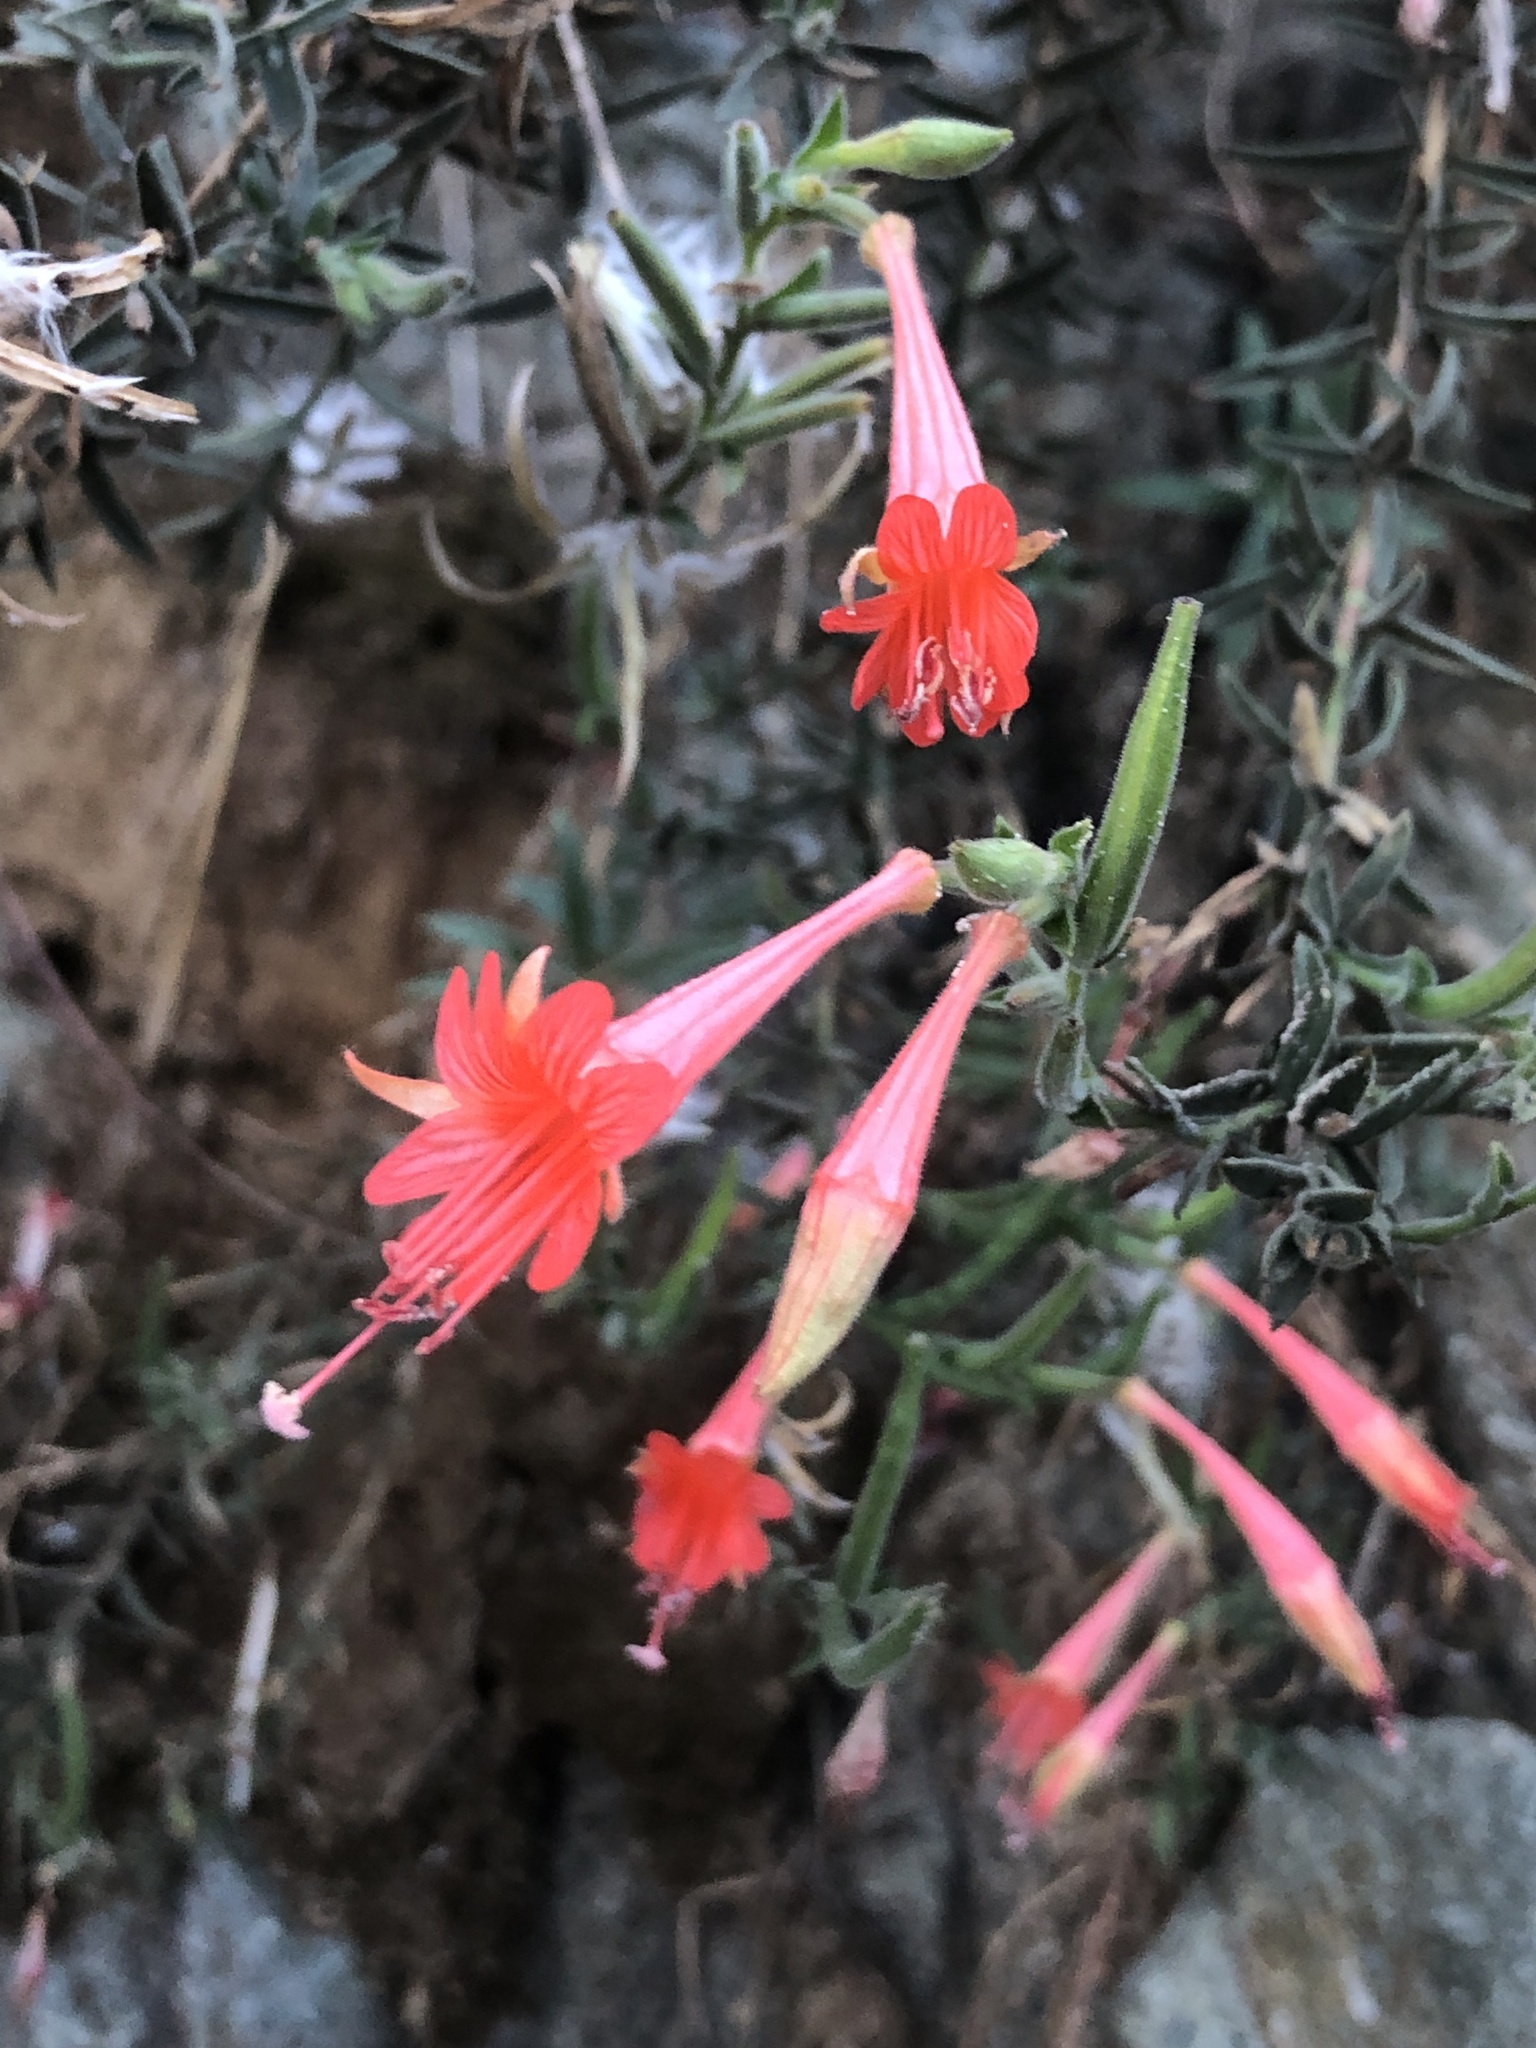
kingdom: Plantae
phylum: Tracheophyta
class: Magnoliopsida
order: Myrtales
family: Onagraceae
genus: Epilobium
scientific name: Epilobium canum
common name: California-fuchsia
